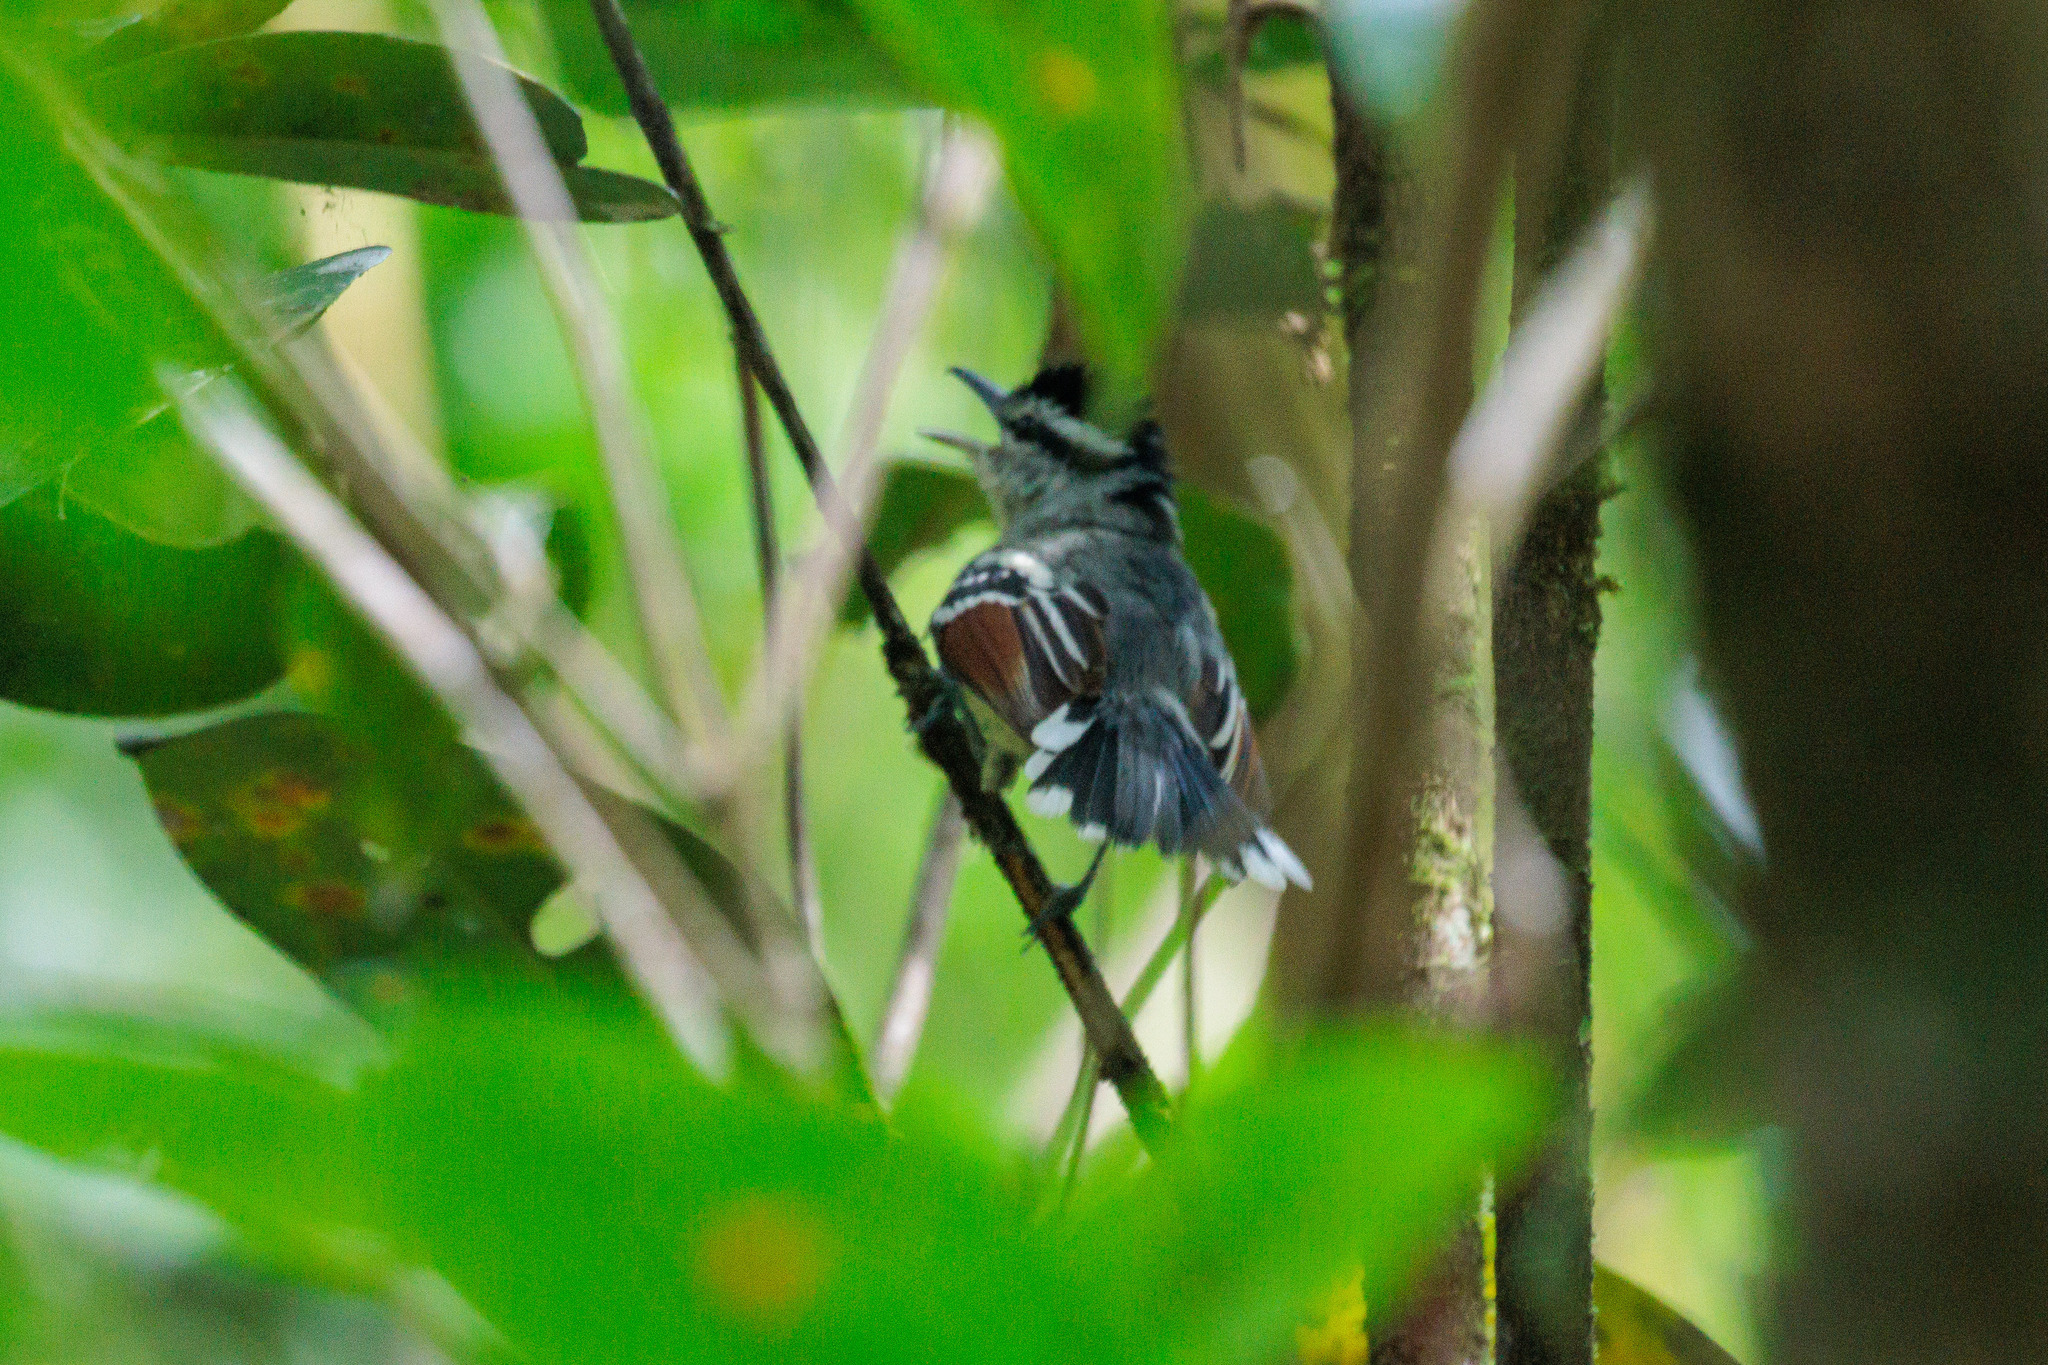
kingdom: Animalia
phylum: Chordata
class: Aves
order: Passeriformes
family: Thamnophilidae
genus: Herpsilochmus
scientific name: Herpsilochmus frater
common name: Rusty-winged antwren
